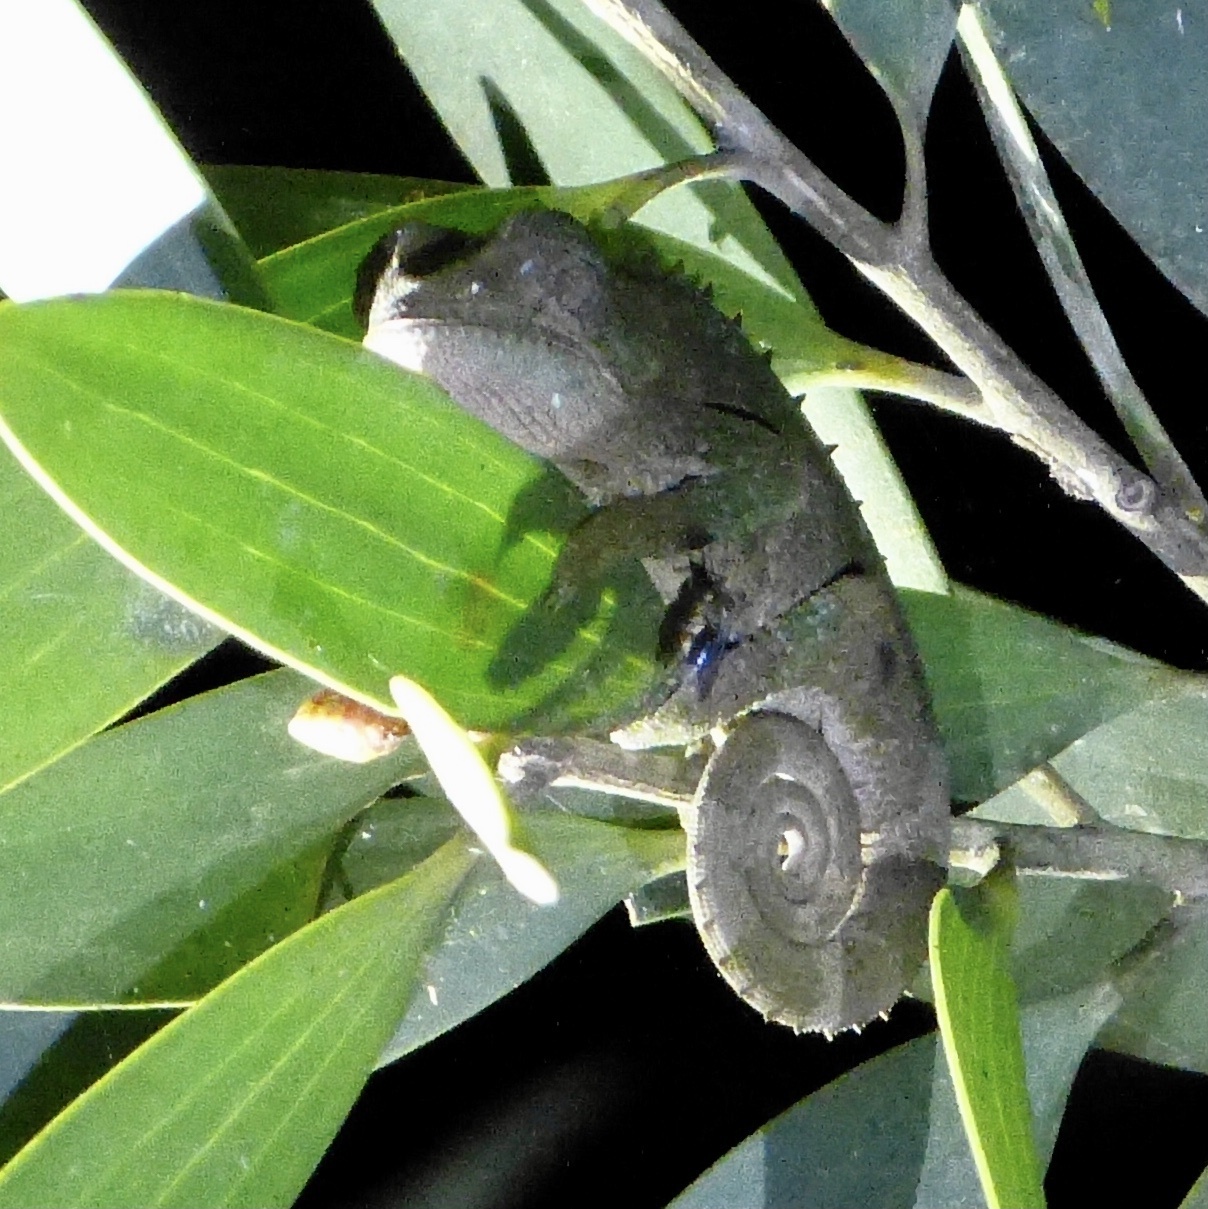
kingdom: Animalia
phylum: Chordata
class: Squamata
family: Chamaeleonidae
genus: Calumma
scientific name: Calumma brevicorne
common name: Short-horned chameleon
